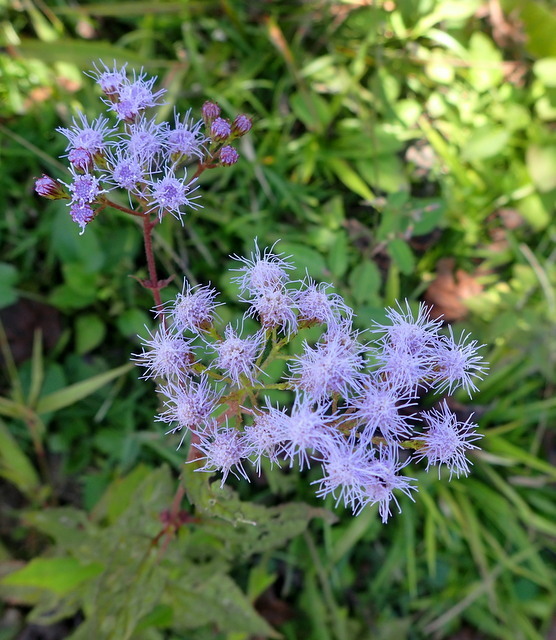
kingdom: Plantae
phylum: Tracheophyta
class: Magnoliopsida
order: Asterales
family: Asteraceae
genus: Conoclinium
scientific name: Conoclinium coelestinum
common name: Blue mistflower
